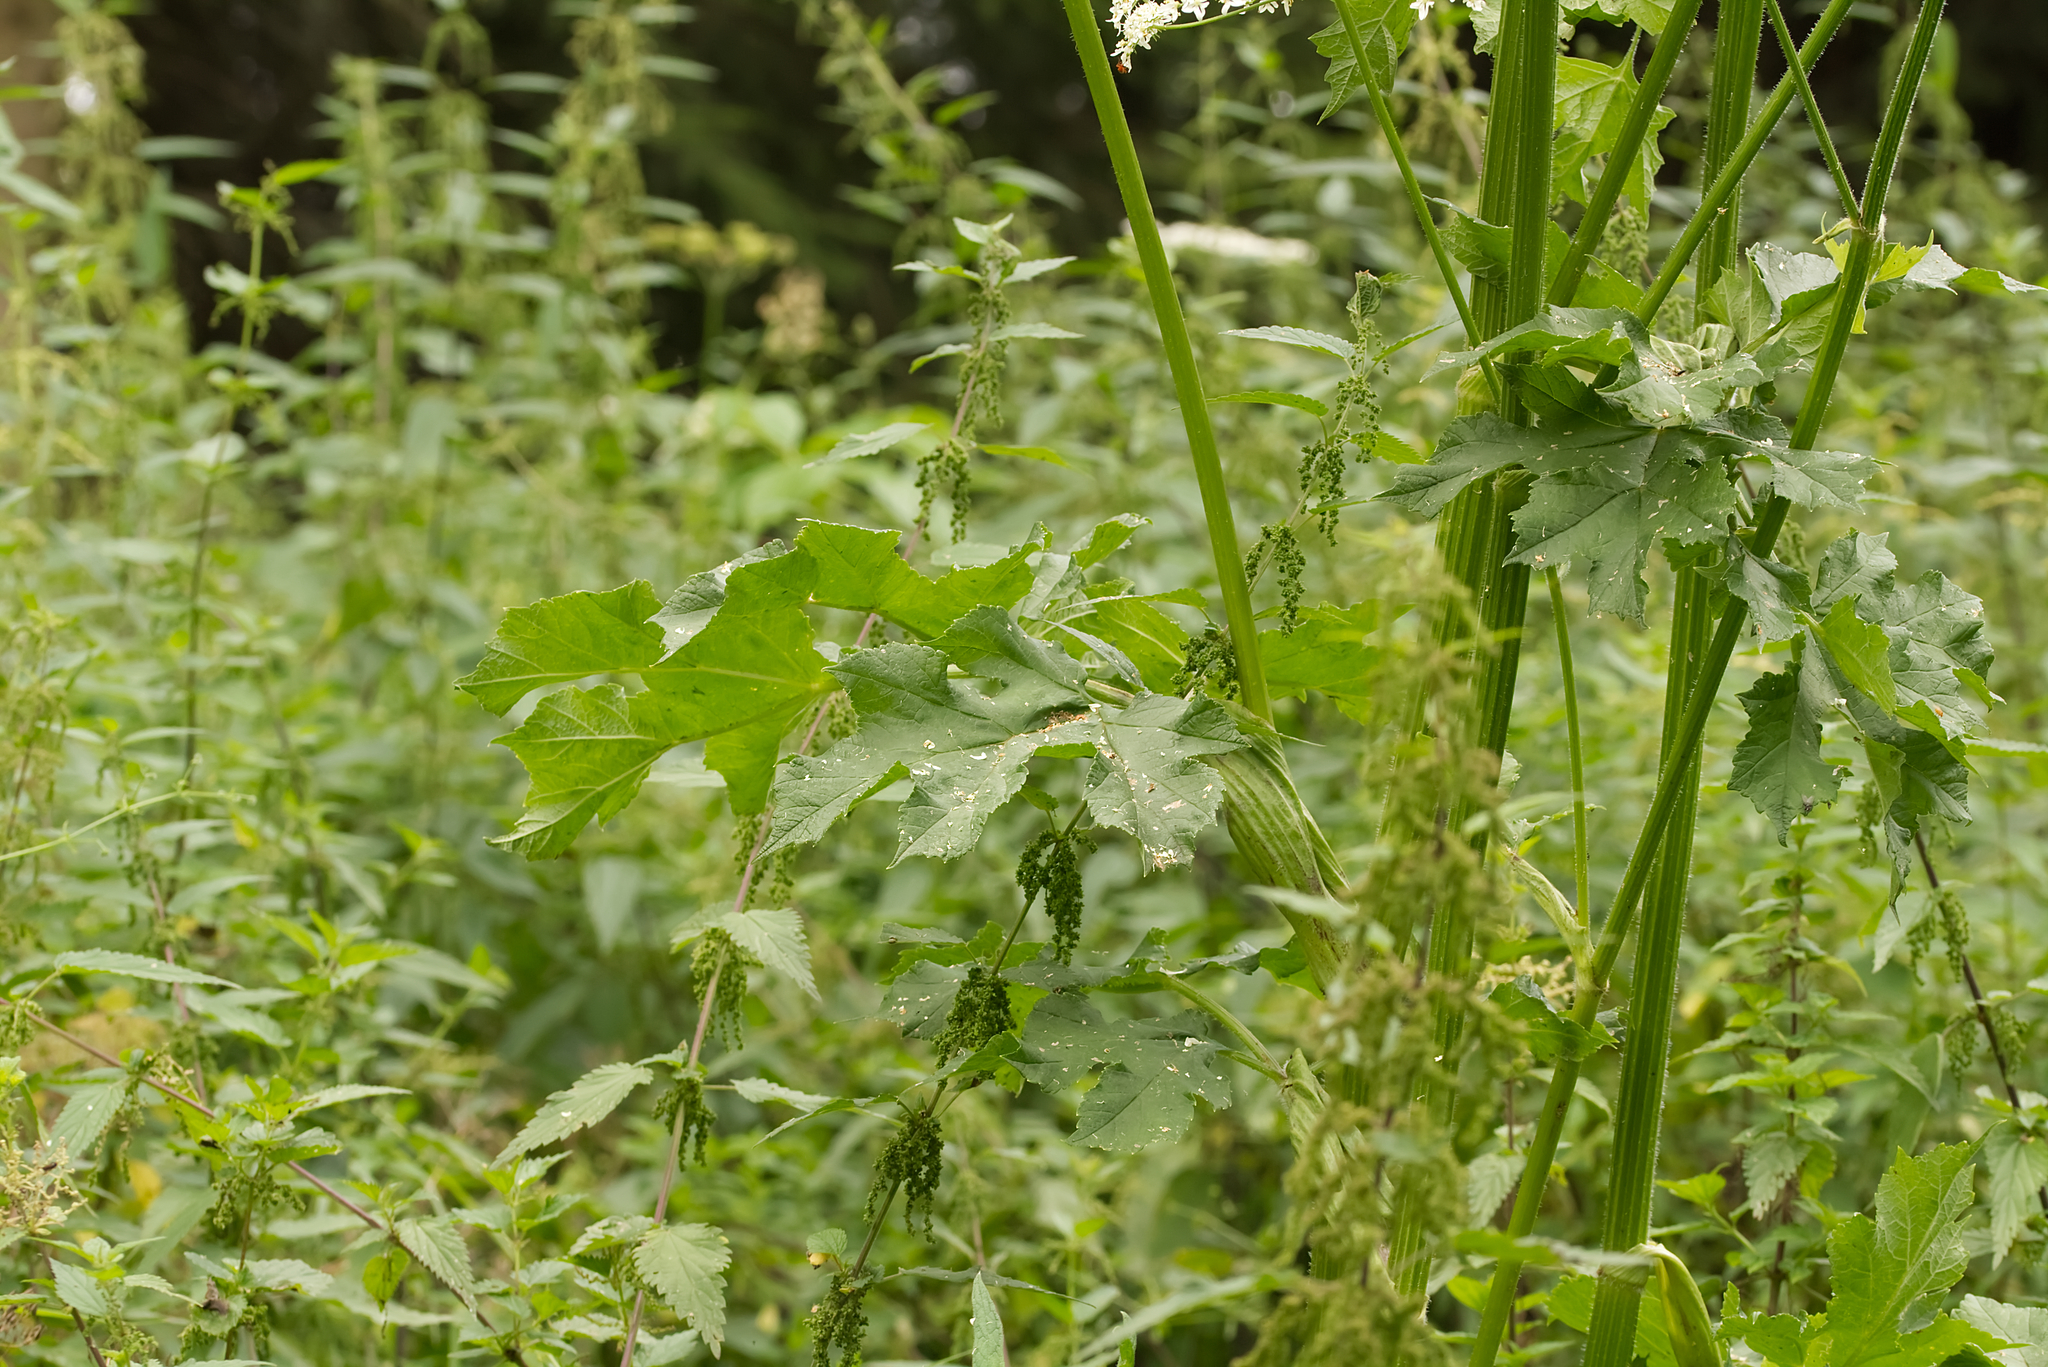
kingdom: Plantae
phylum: Tracheophyta
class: Magnoliopsida
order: Apiales
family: Apiaceae
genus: Heracleum
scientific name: Heracleum sphondylium
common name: Hogweed
